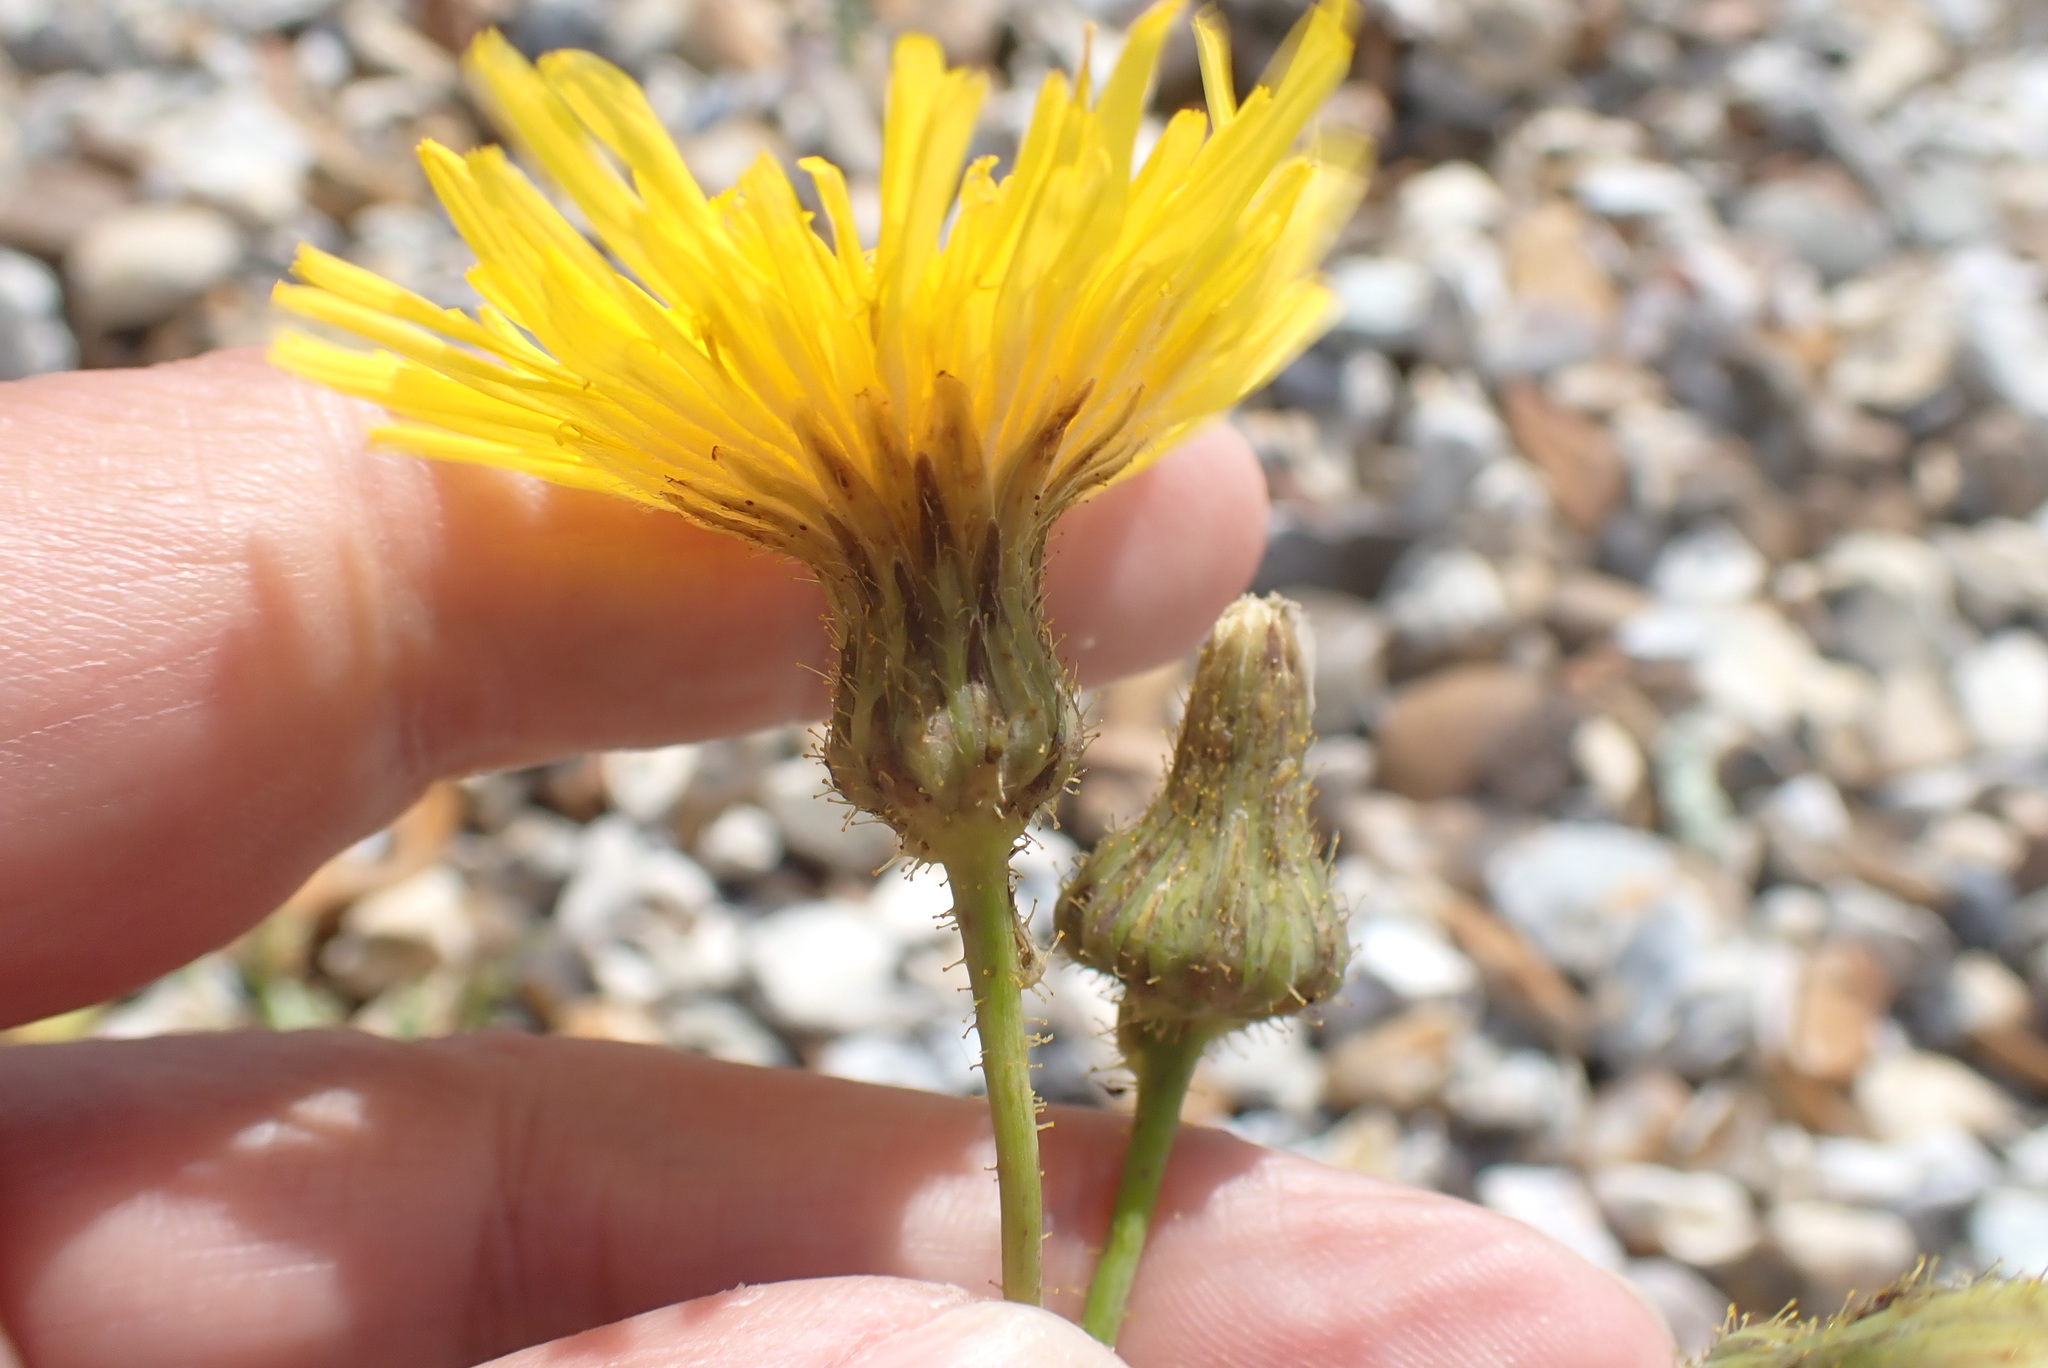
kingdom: Plantae
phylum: Tracheophyta
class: Magnoliopsida
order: Asterales
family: Asteraceae
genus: Sonchus
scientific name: Sonchus arvensis
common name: Perennial sow-thistle
